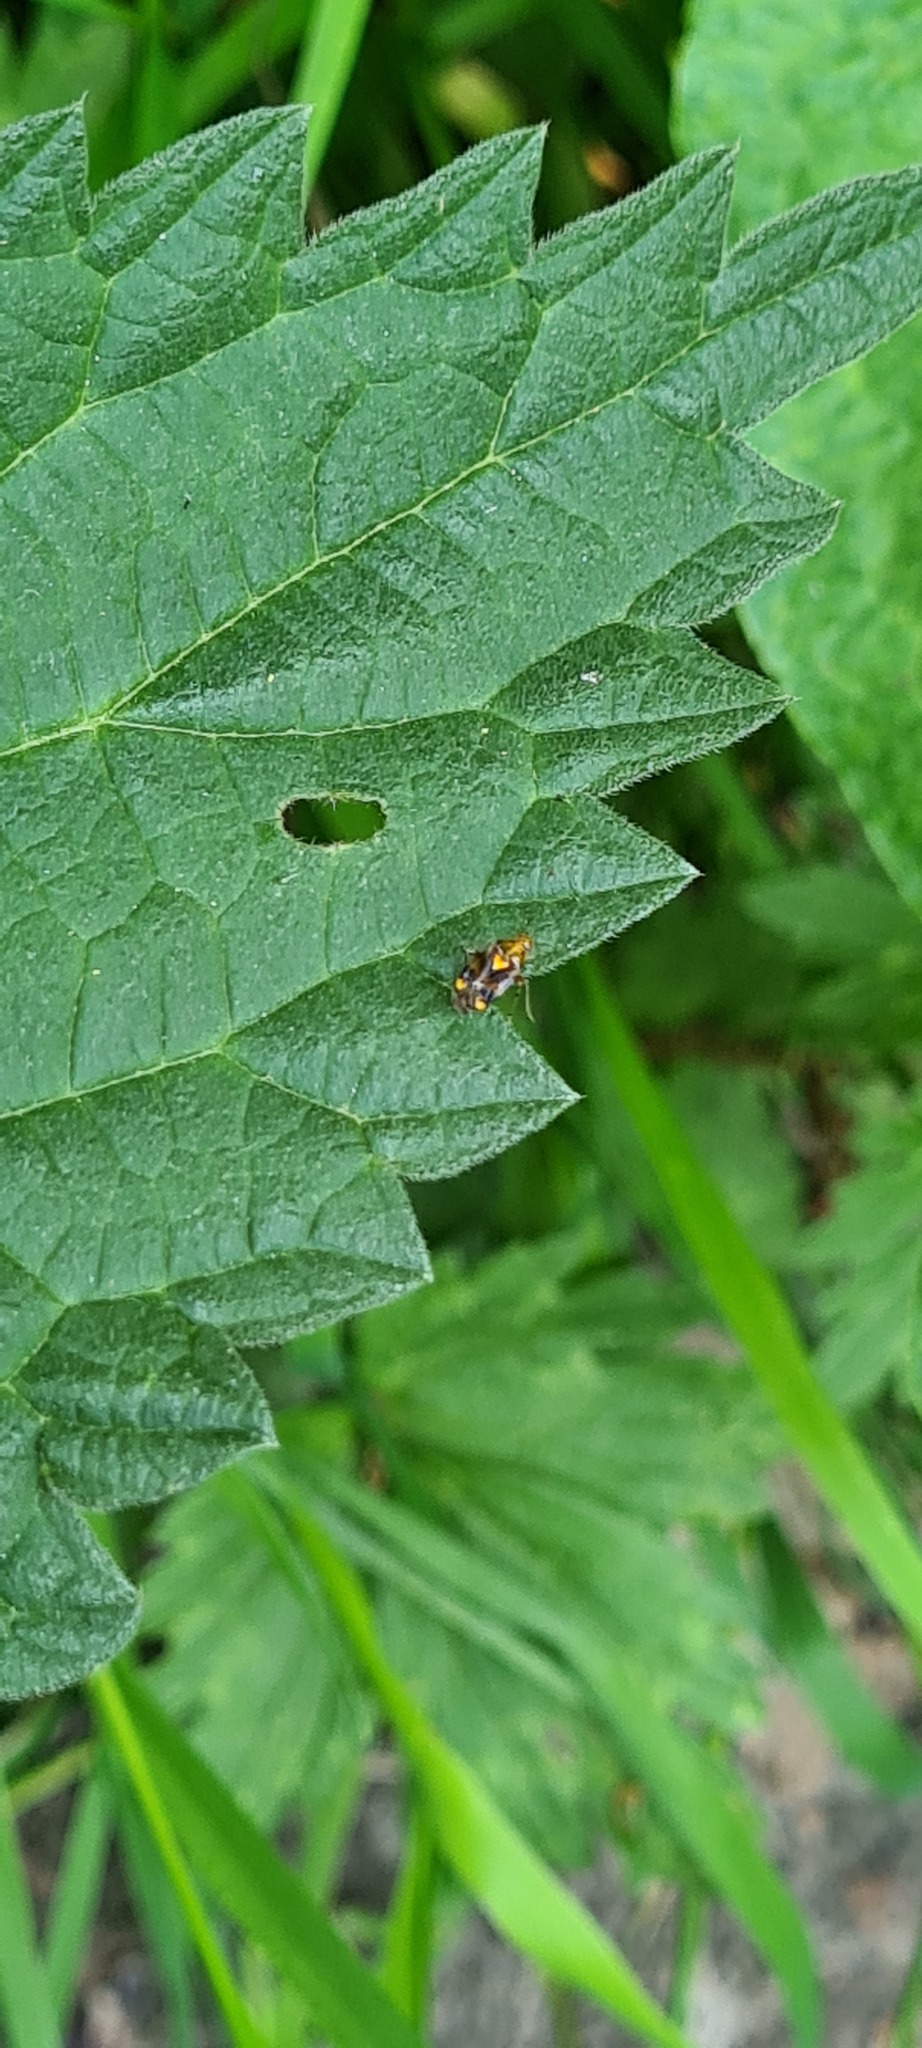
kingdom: Animalia
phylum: Arthropoda
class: Insecta
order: Hemiptera
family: Miridae
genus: Liocoris
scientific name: Liocoris tripustulatus
